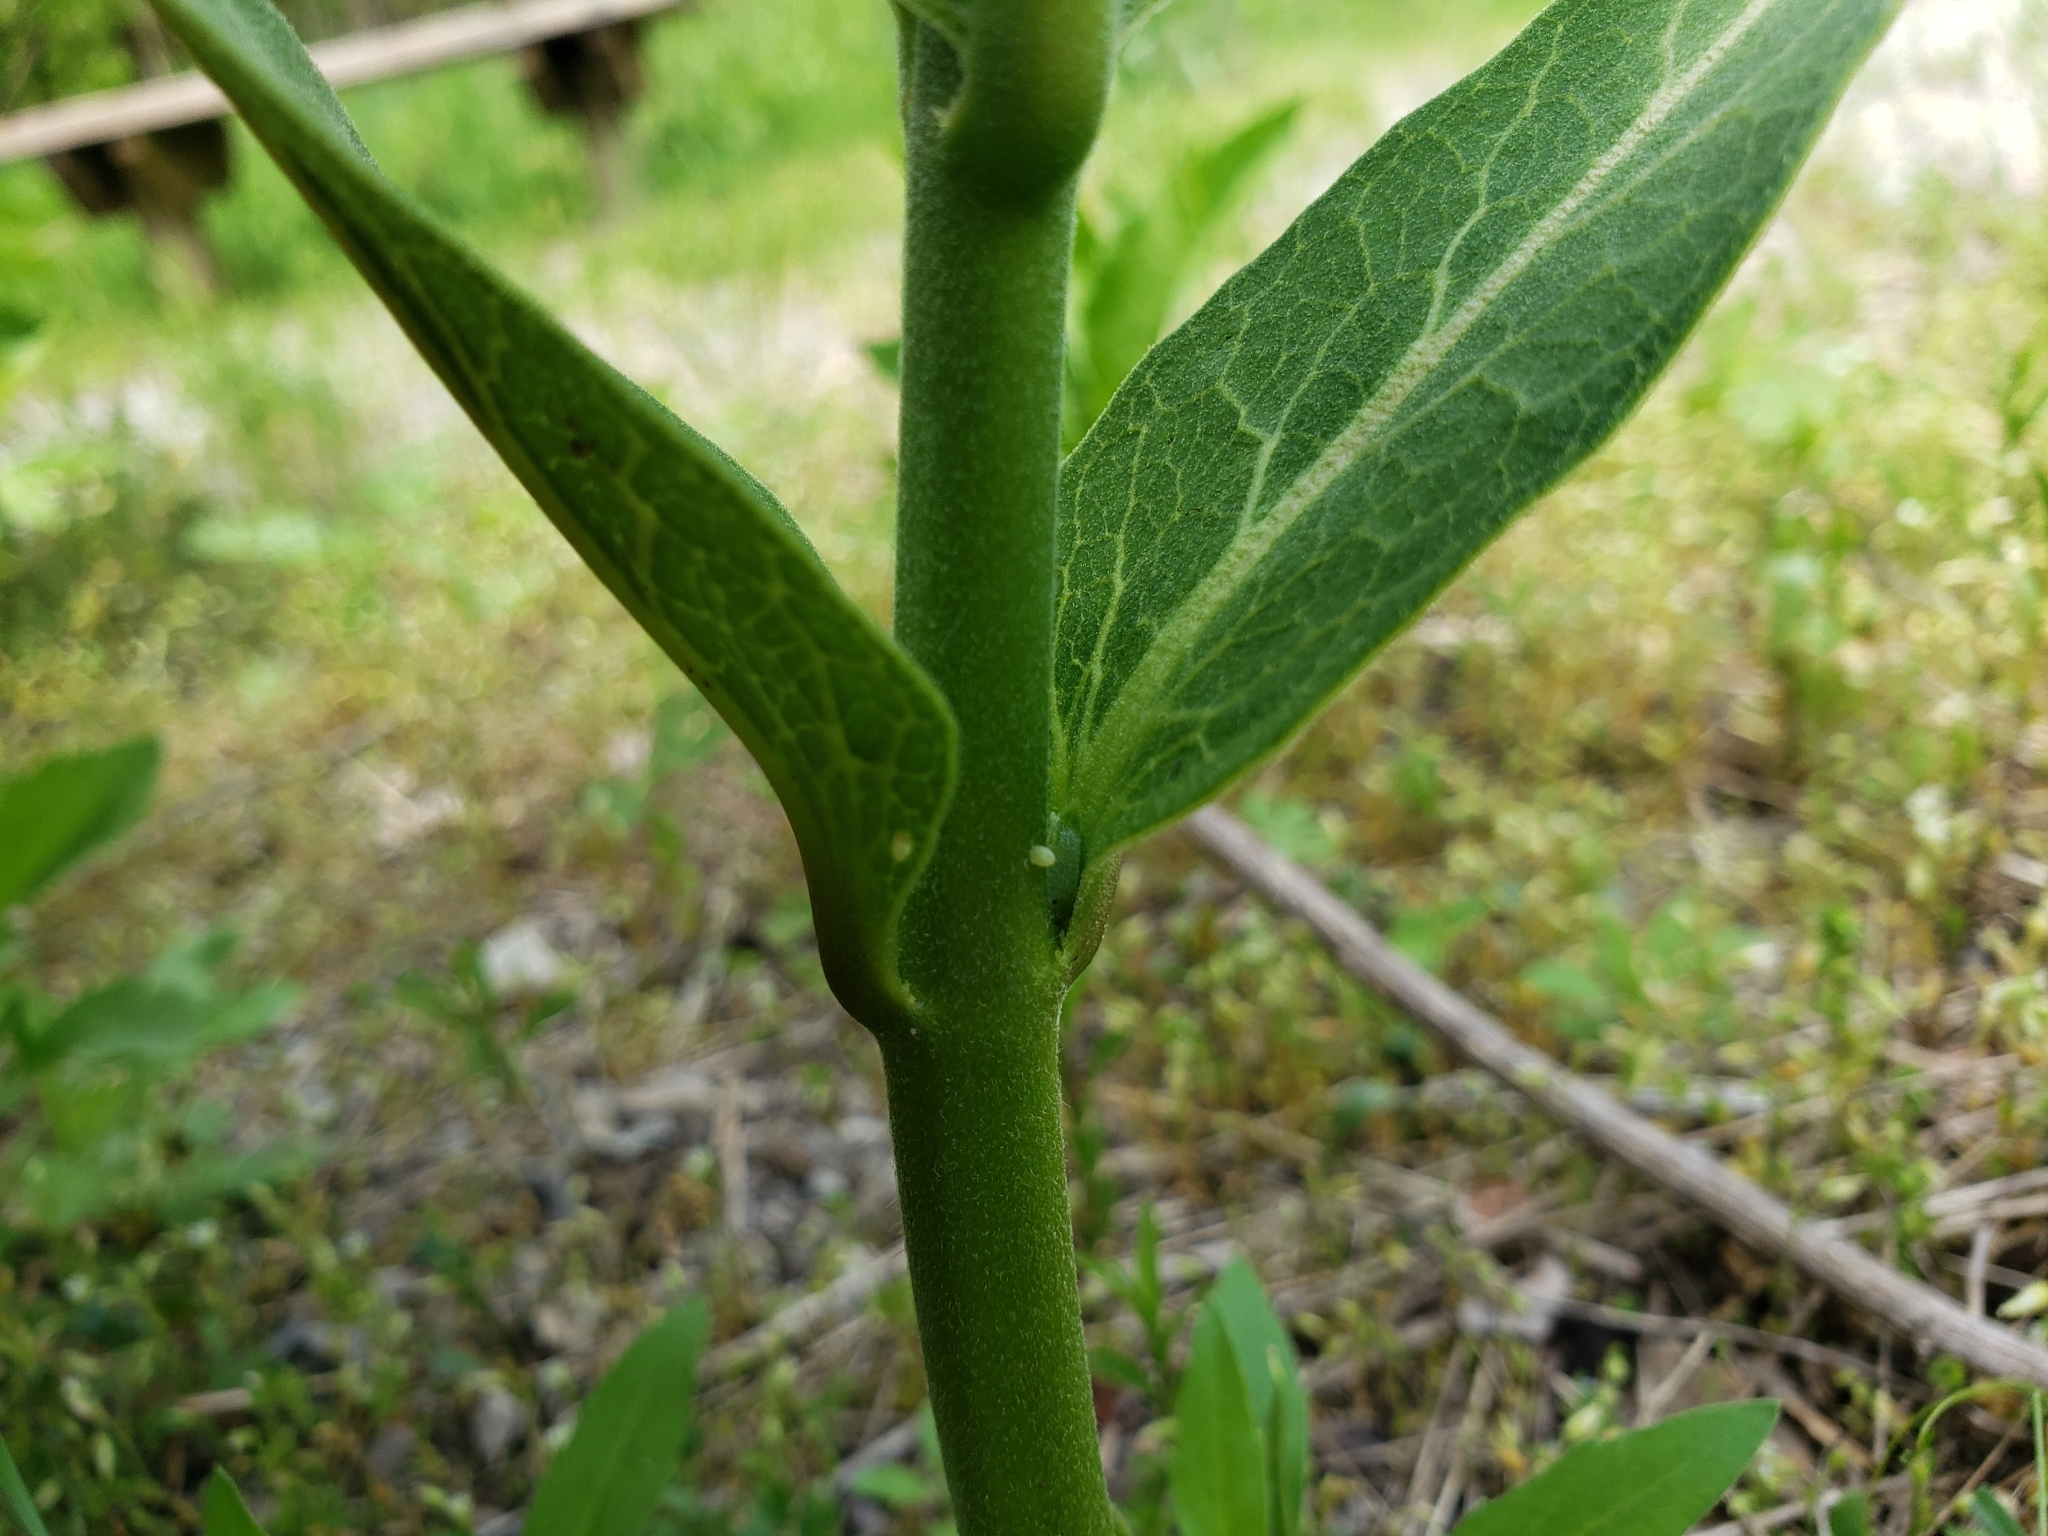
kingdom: Animalia
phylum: Arthropoda
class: Insecta
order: Lepidoptera
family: Nymphalidae
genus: Danaus
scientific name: Danaus plexippus
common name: Monarch
